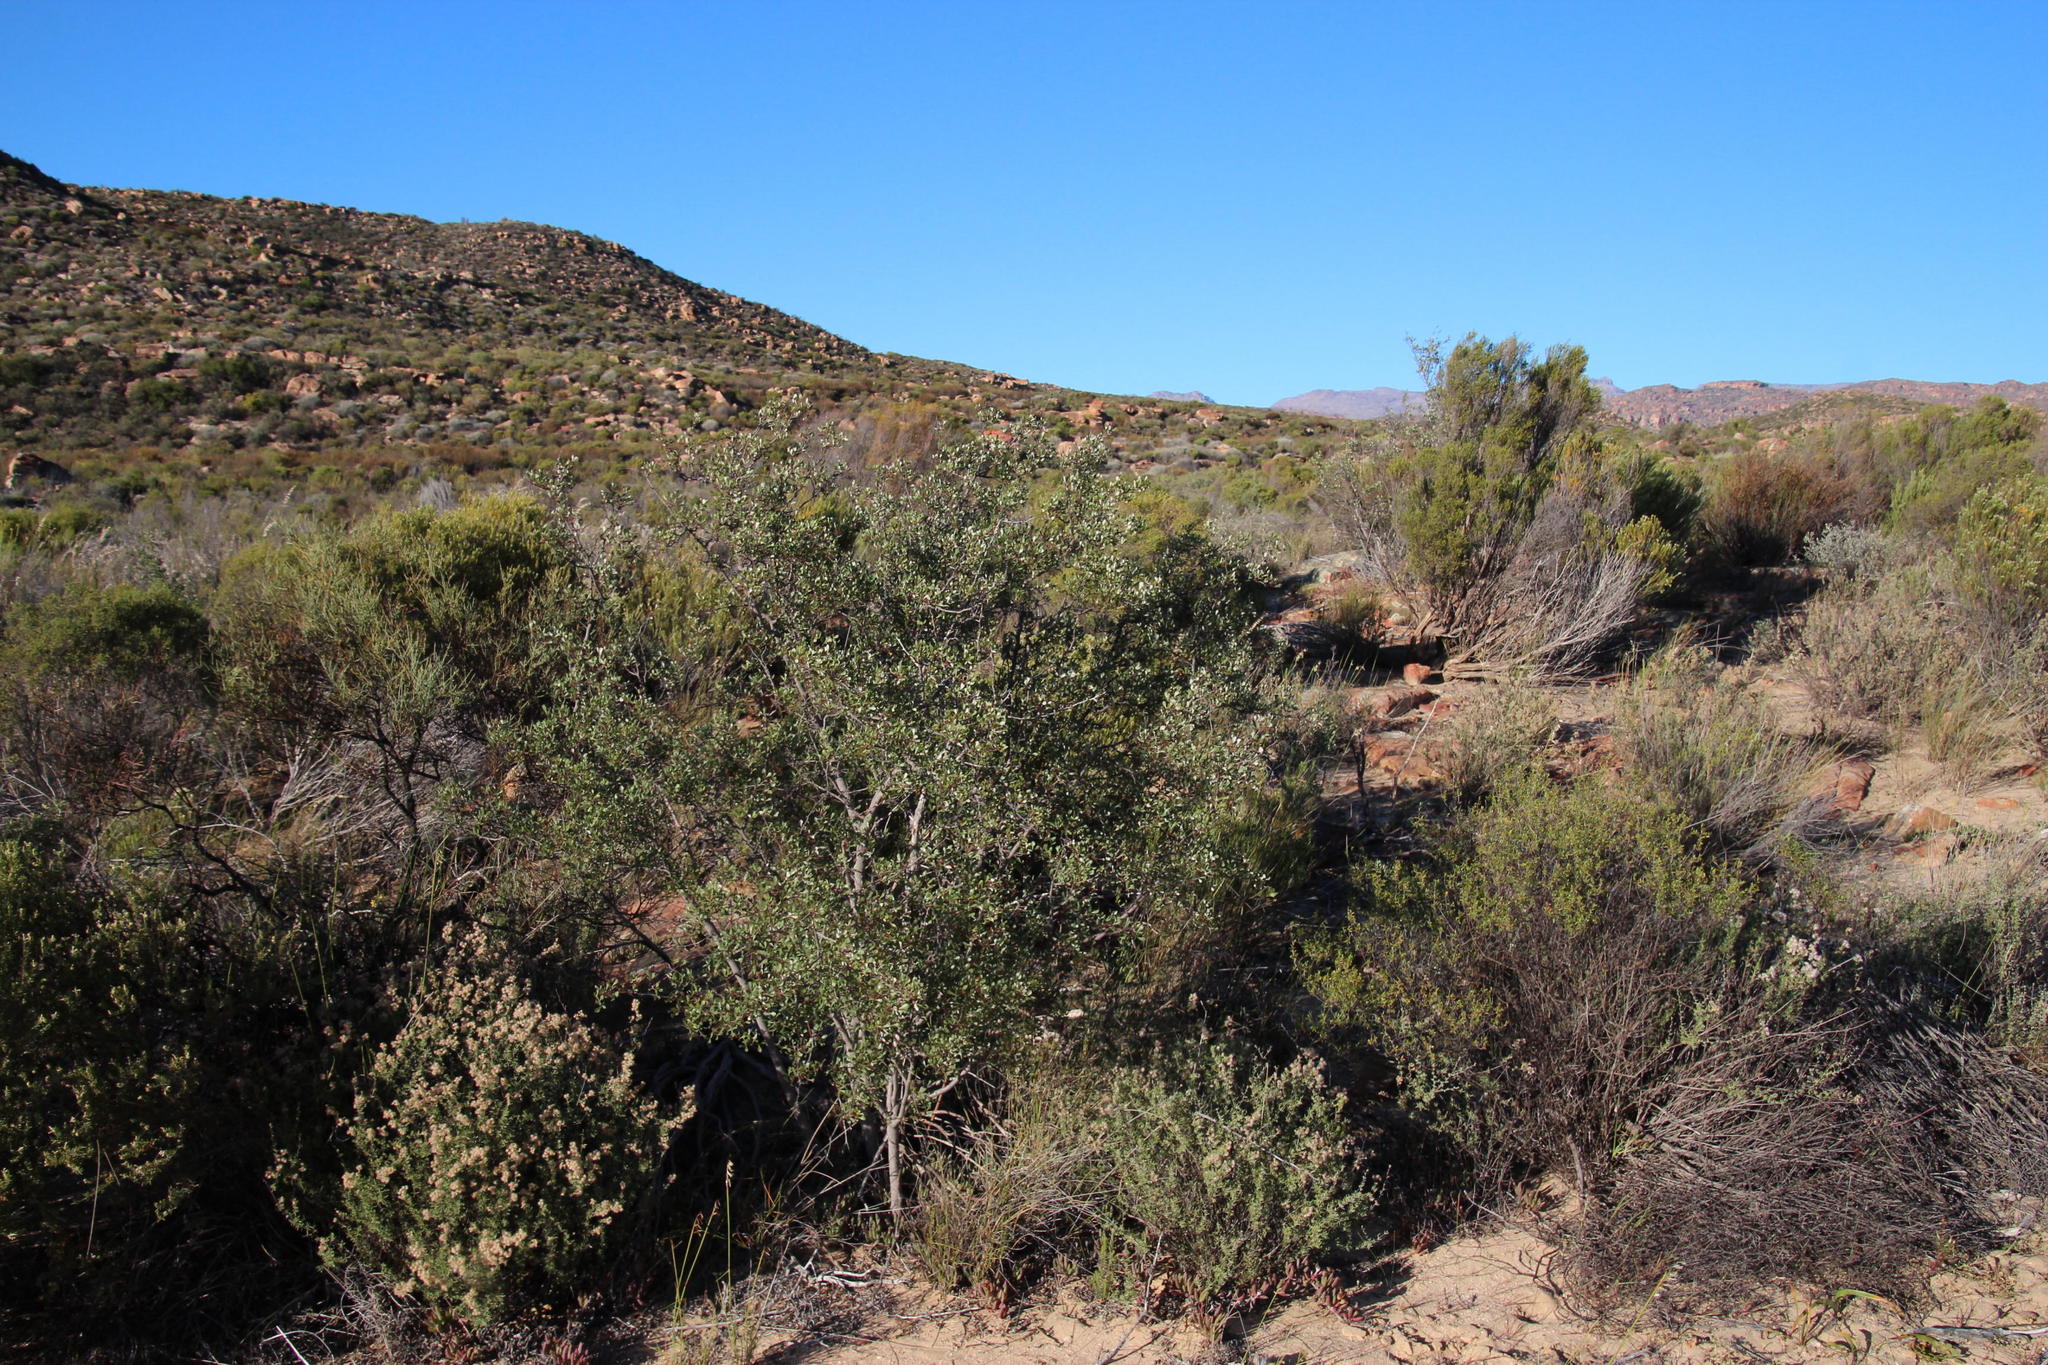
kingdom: Plantae
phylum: Tracheophyta
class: Magnoliopsida
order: Rosales
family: Rhamnaceae
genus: Phylica
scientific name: Phylica oleifolia
